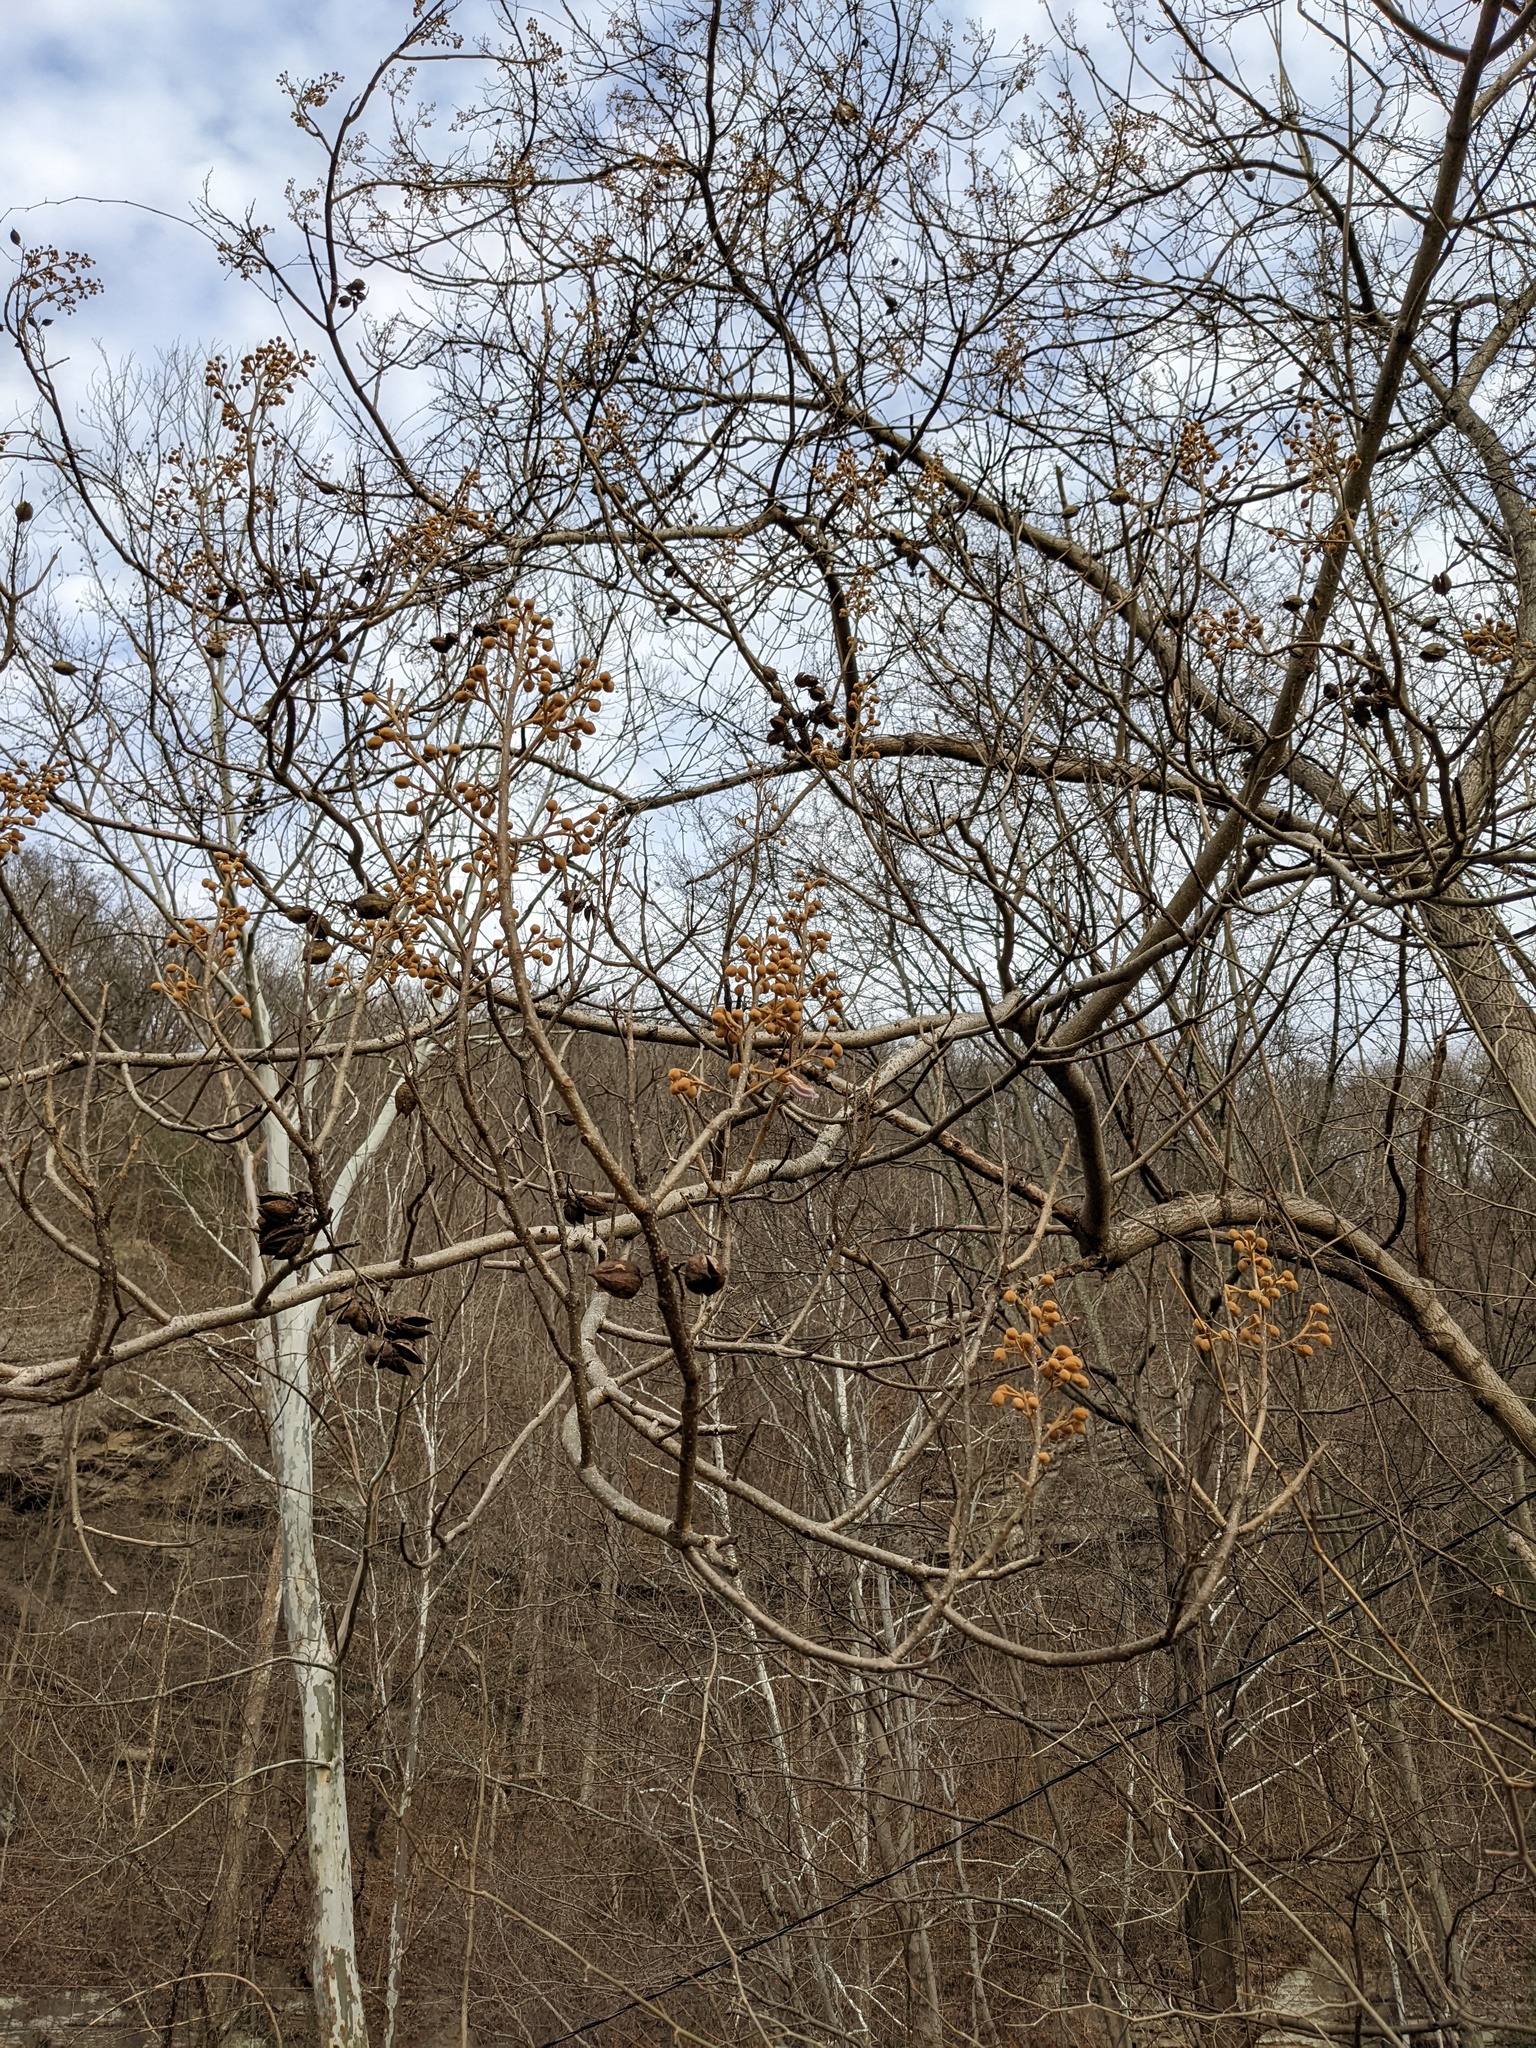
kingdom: Plantae
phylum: Tracheophyta
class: Magnoliopsida
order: Lamiales
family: Paulowniaceae
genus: Paulownia
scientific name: Paulownia tomentosa
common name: Foxglove-tree
